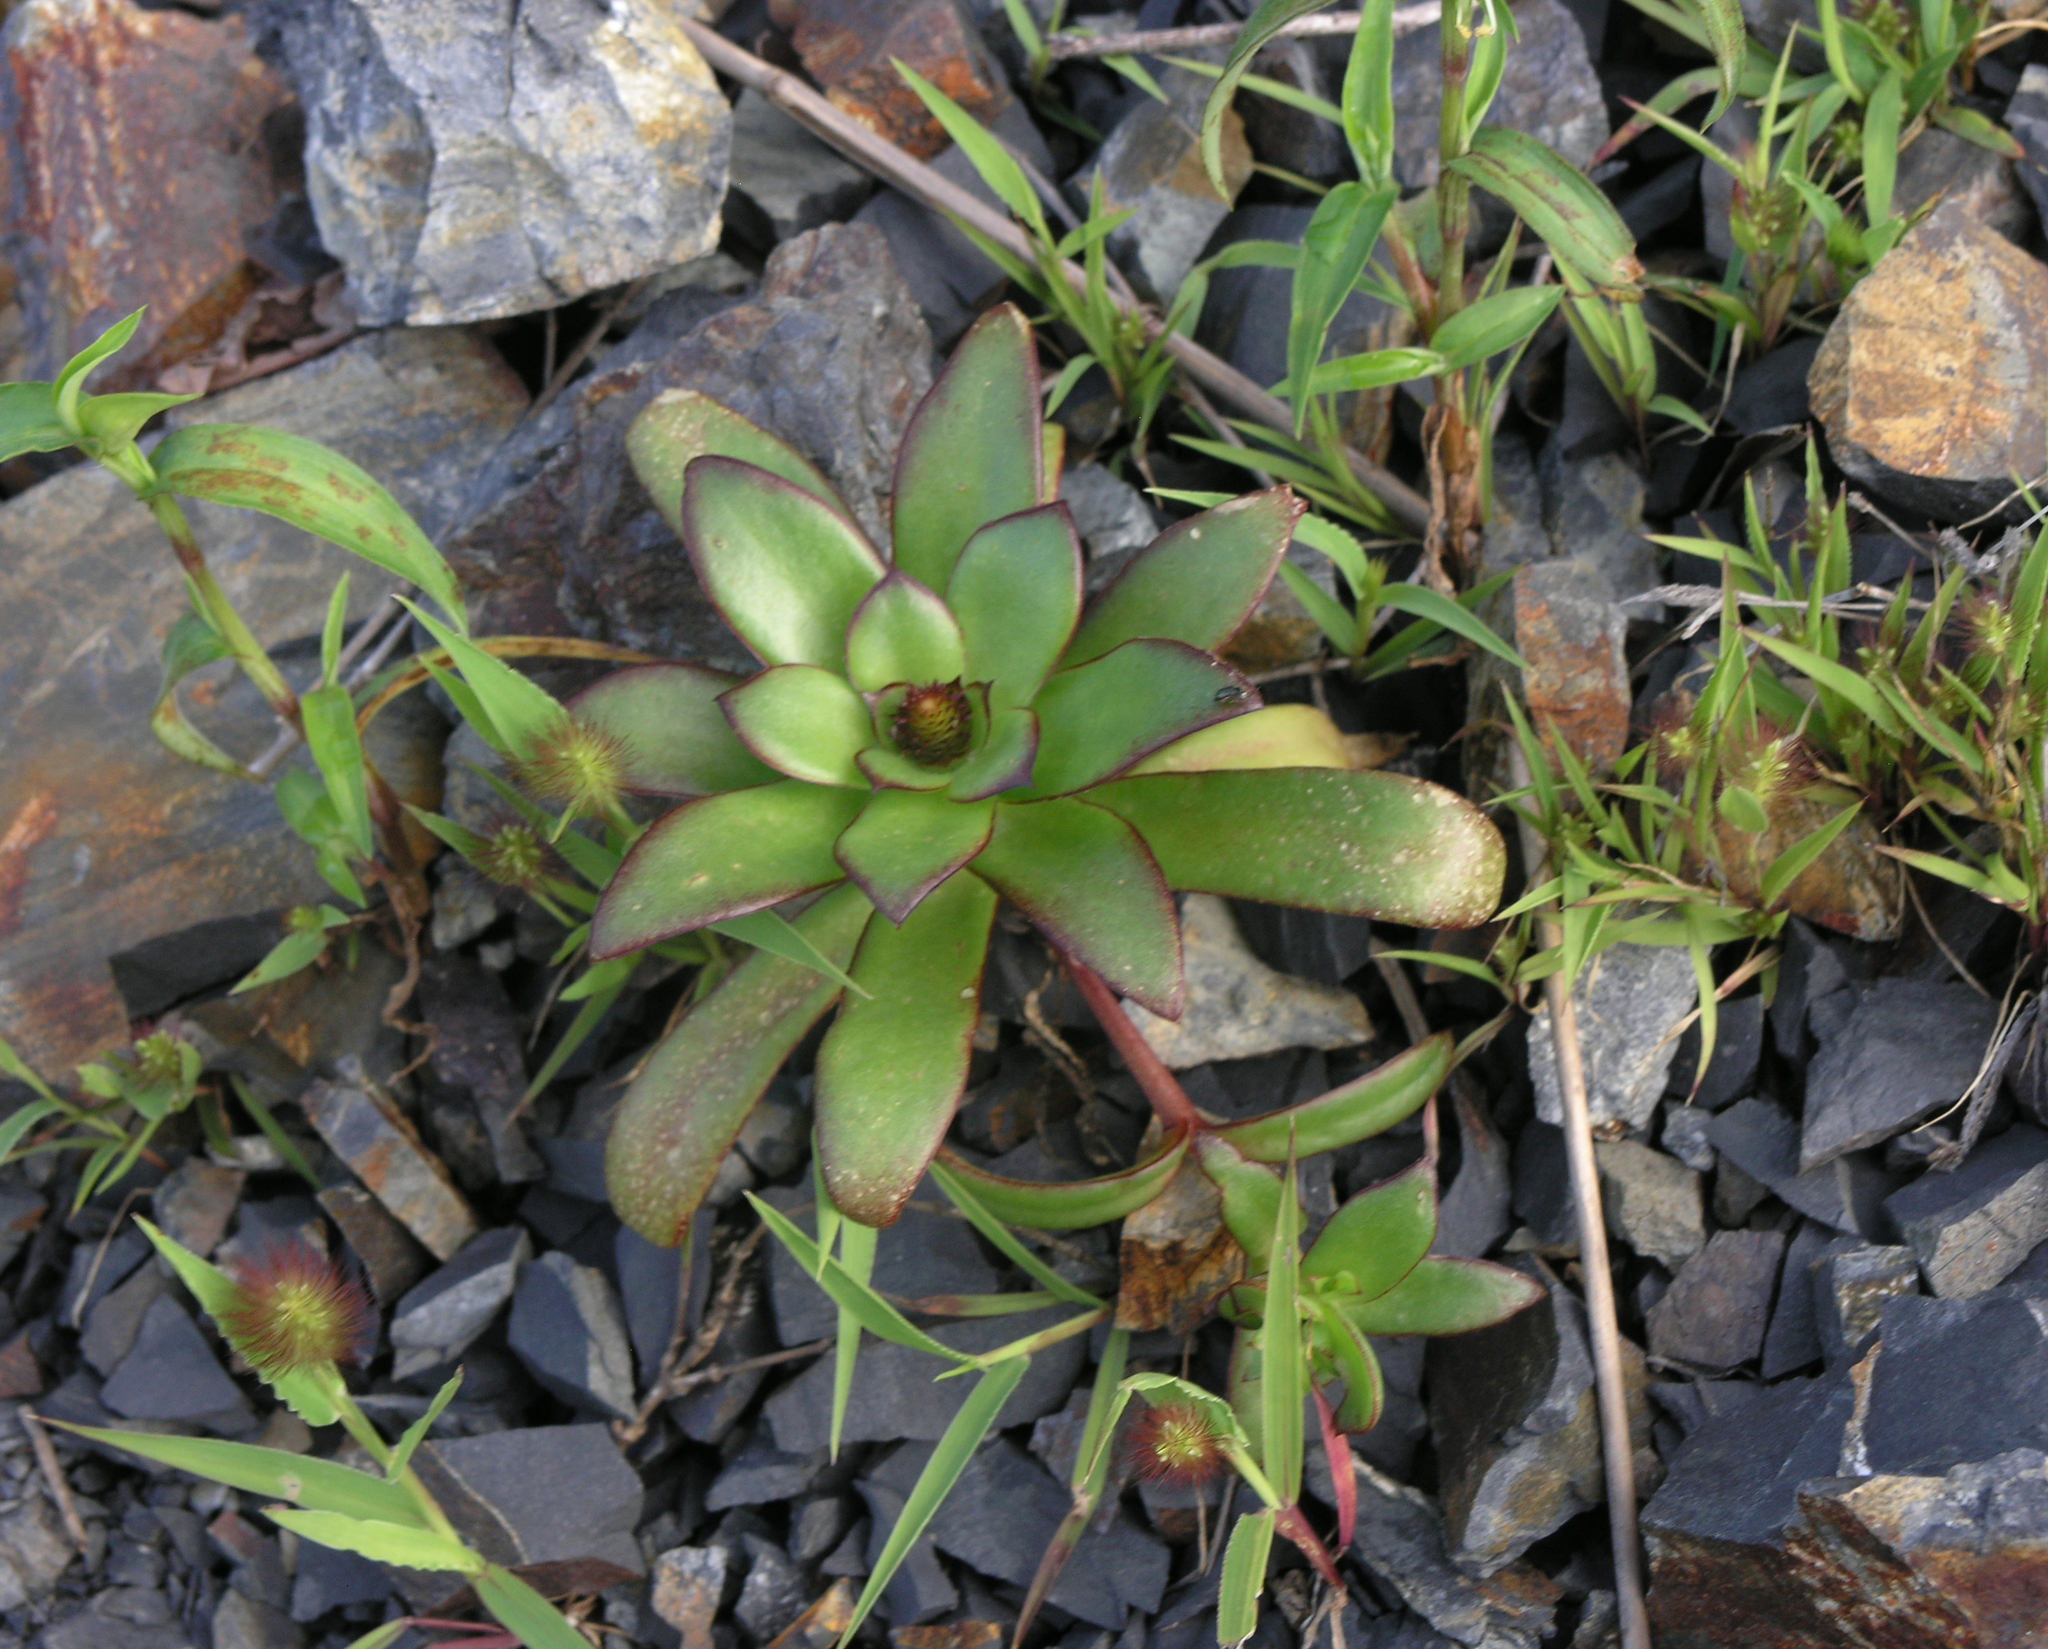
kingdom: Plantae
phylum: Tracheophyta
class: Magnoliopsida
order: Saxifragales
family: Crassulaceae
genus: Orostachys
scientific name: Orostachys maximowiczii
